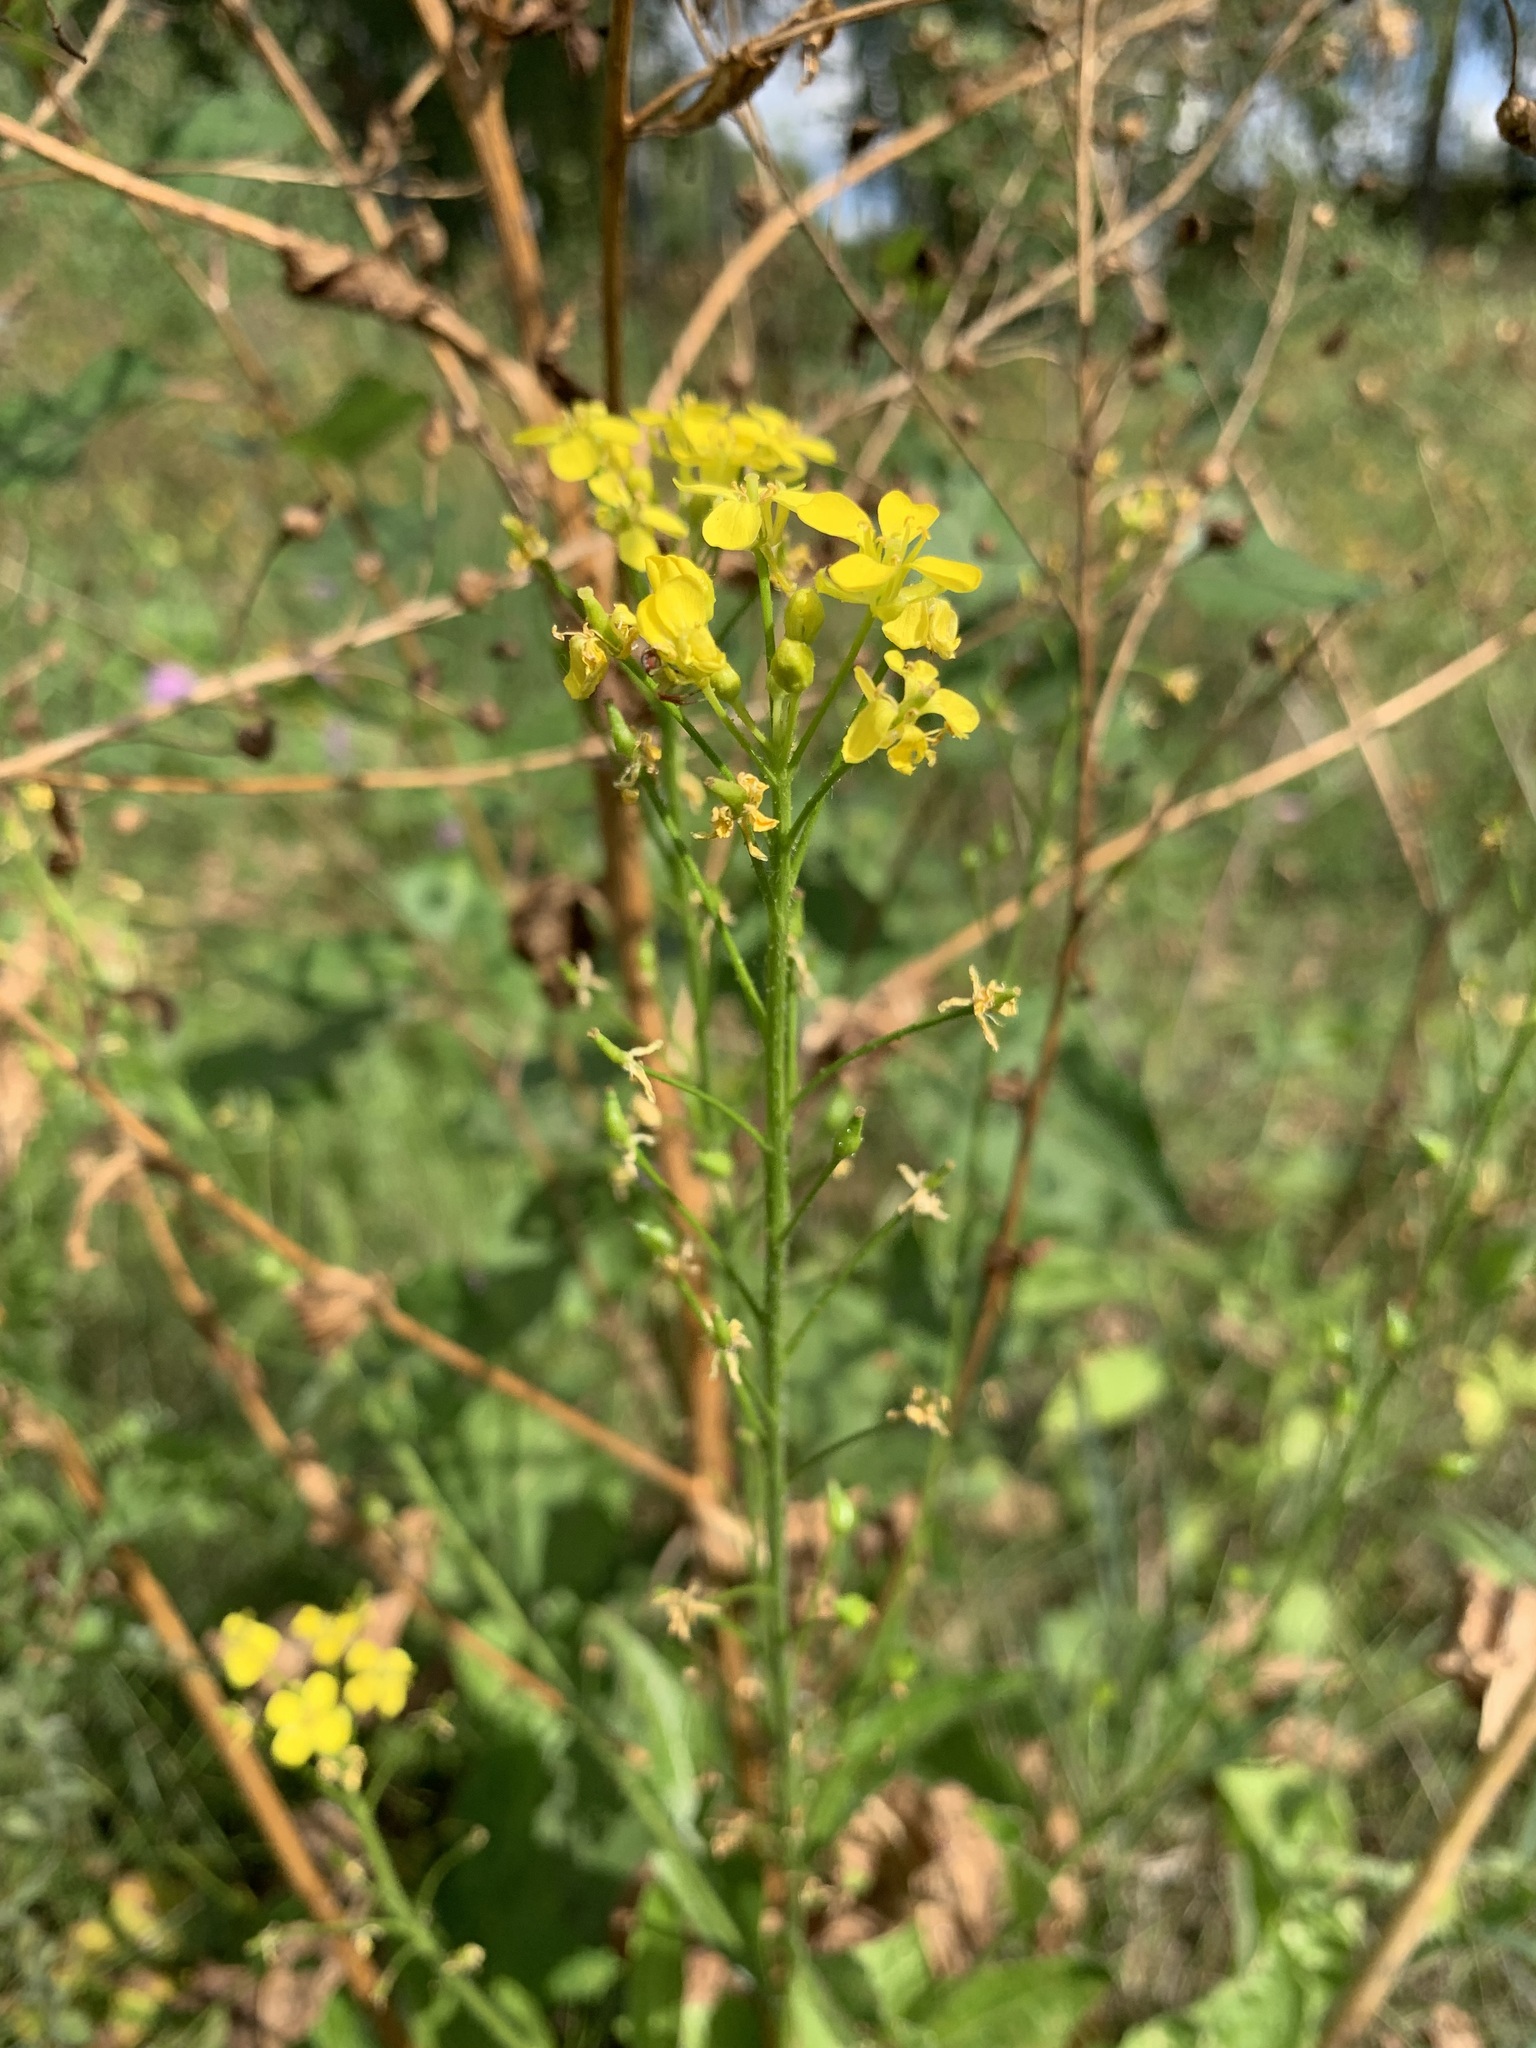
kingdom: Plantae
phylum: Tracheophyta
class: Magnoliopsida
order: Brassicales
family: Brassicaceae
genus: Bunias
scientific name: Bunias orientalis
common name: Warty-cabbage
